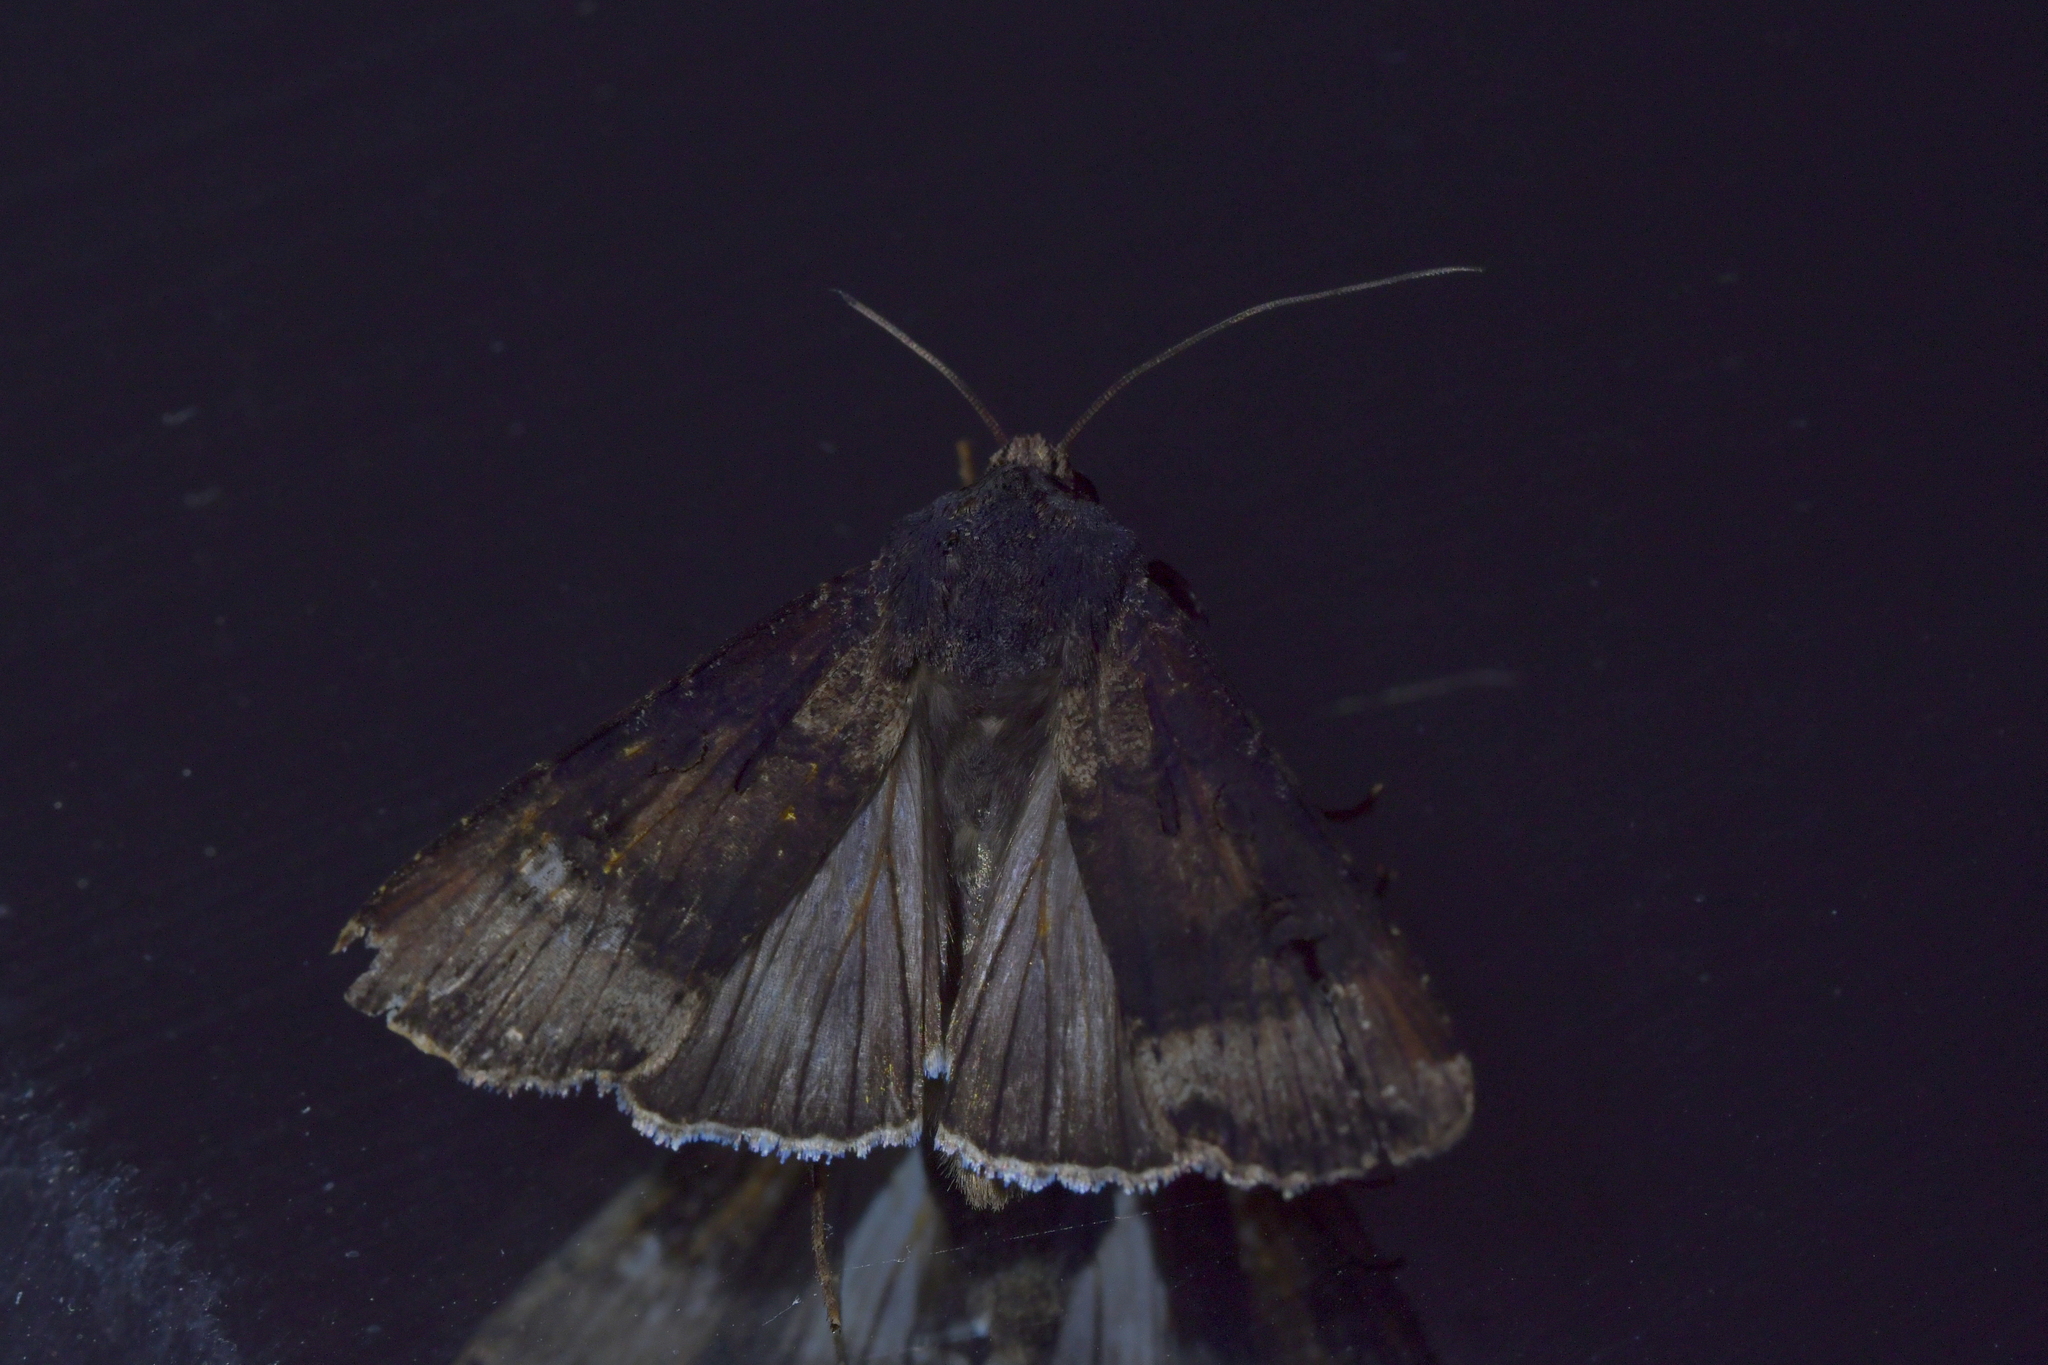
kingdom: Animalia
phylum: Arthropoda
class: Insecta
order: Lepidoptera
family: Noctuidae
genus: Agrotis
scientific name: Agrotis ipsilon
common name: Dark sword-grass
